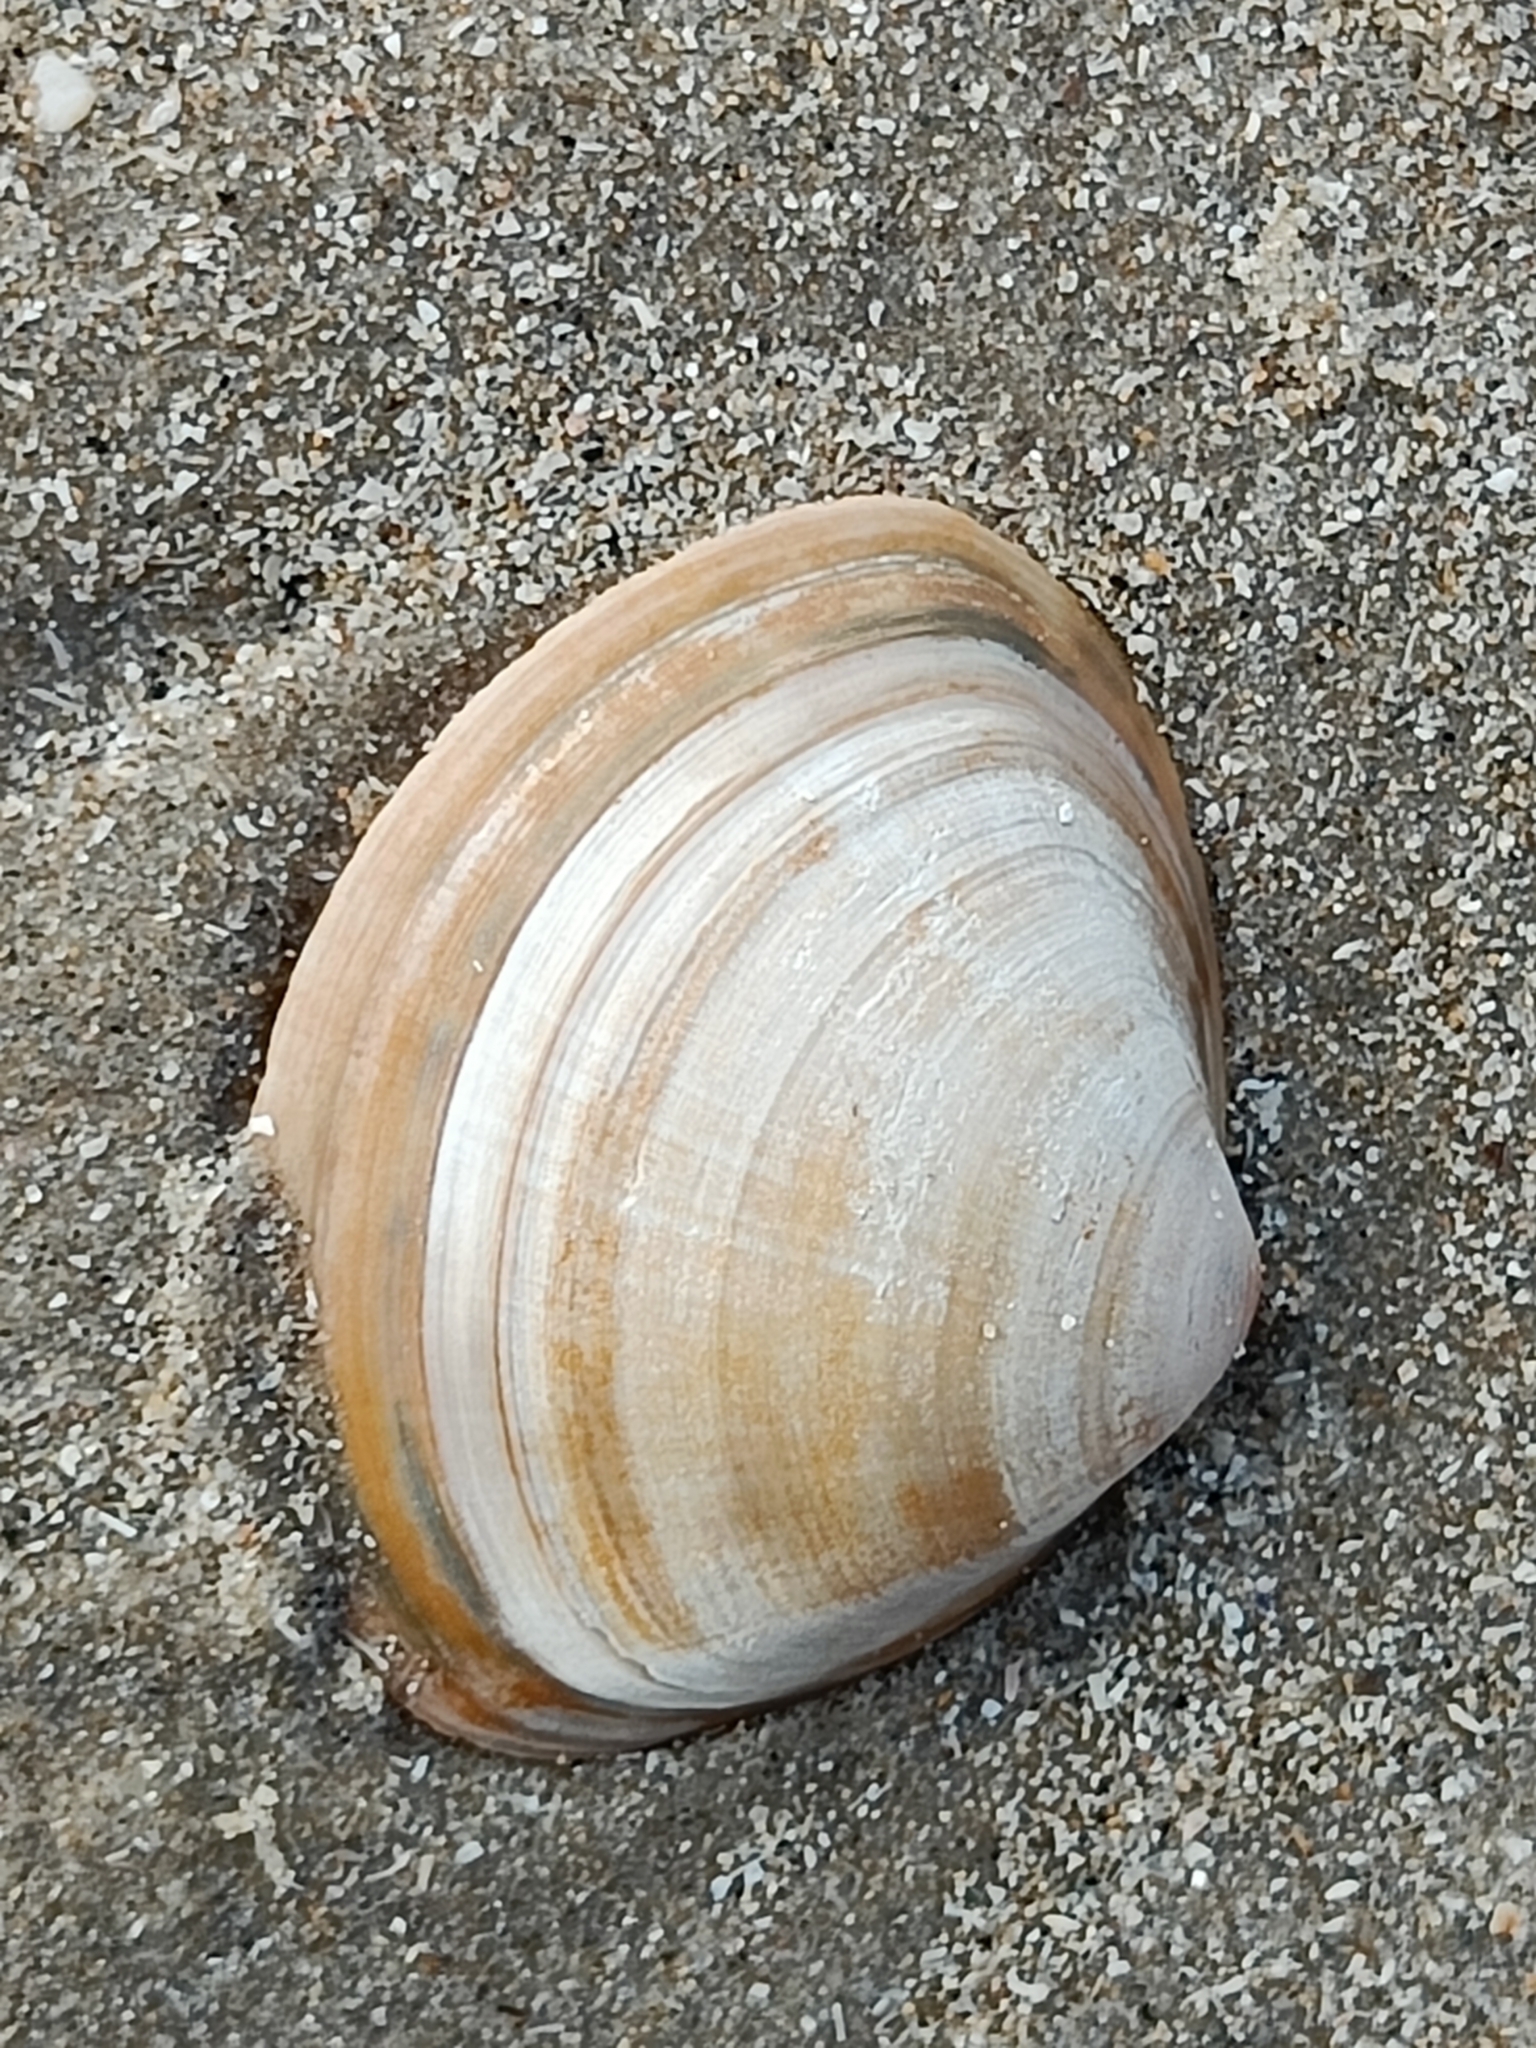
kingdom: Animalia
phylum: Mollusca
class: Bivalvia
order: Venerida
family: Mactridae
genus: Mactra
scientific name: Mactra stultorum
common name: Rayed trough shell
